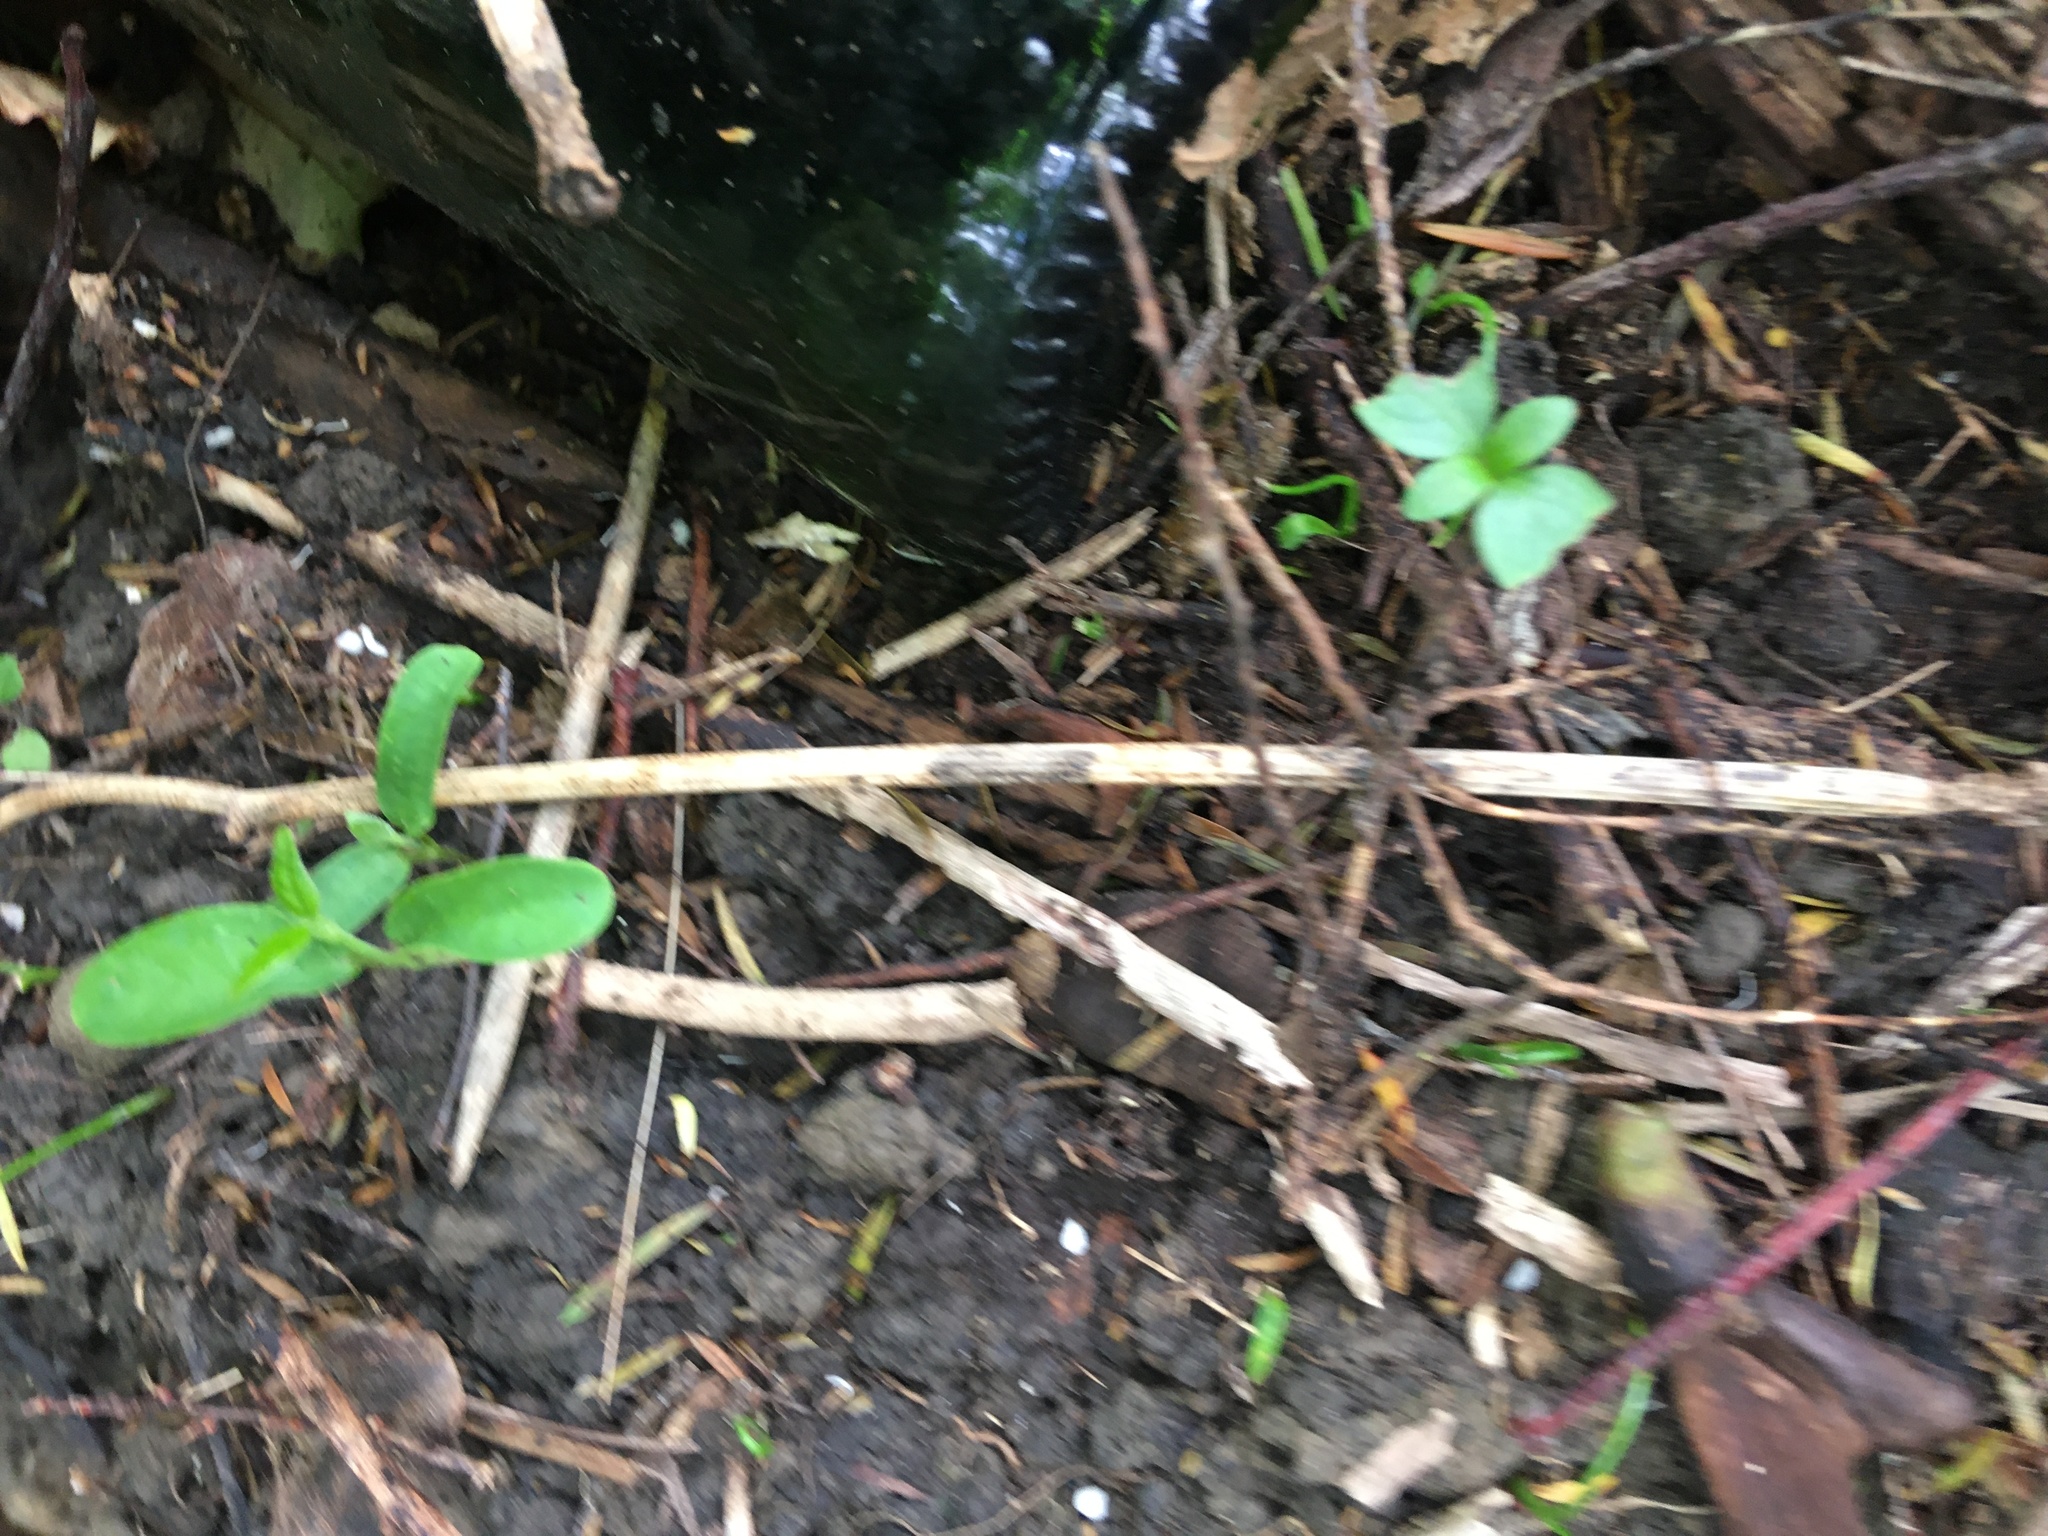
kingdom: Plantae
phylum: Tracheophyta
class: Magnoliopsida
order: Gentianales
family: Apocynaceae
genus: Araujia
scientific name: Araujia sericifera
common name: White bladderflower
